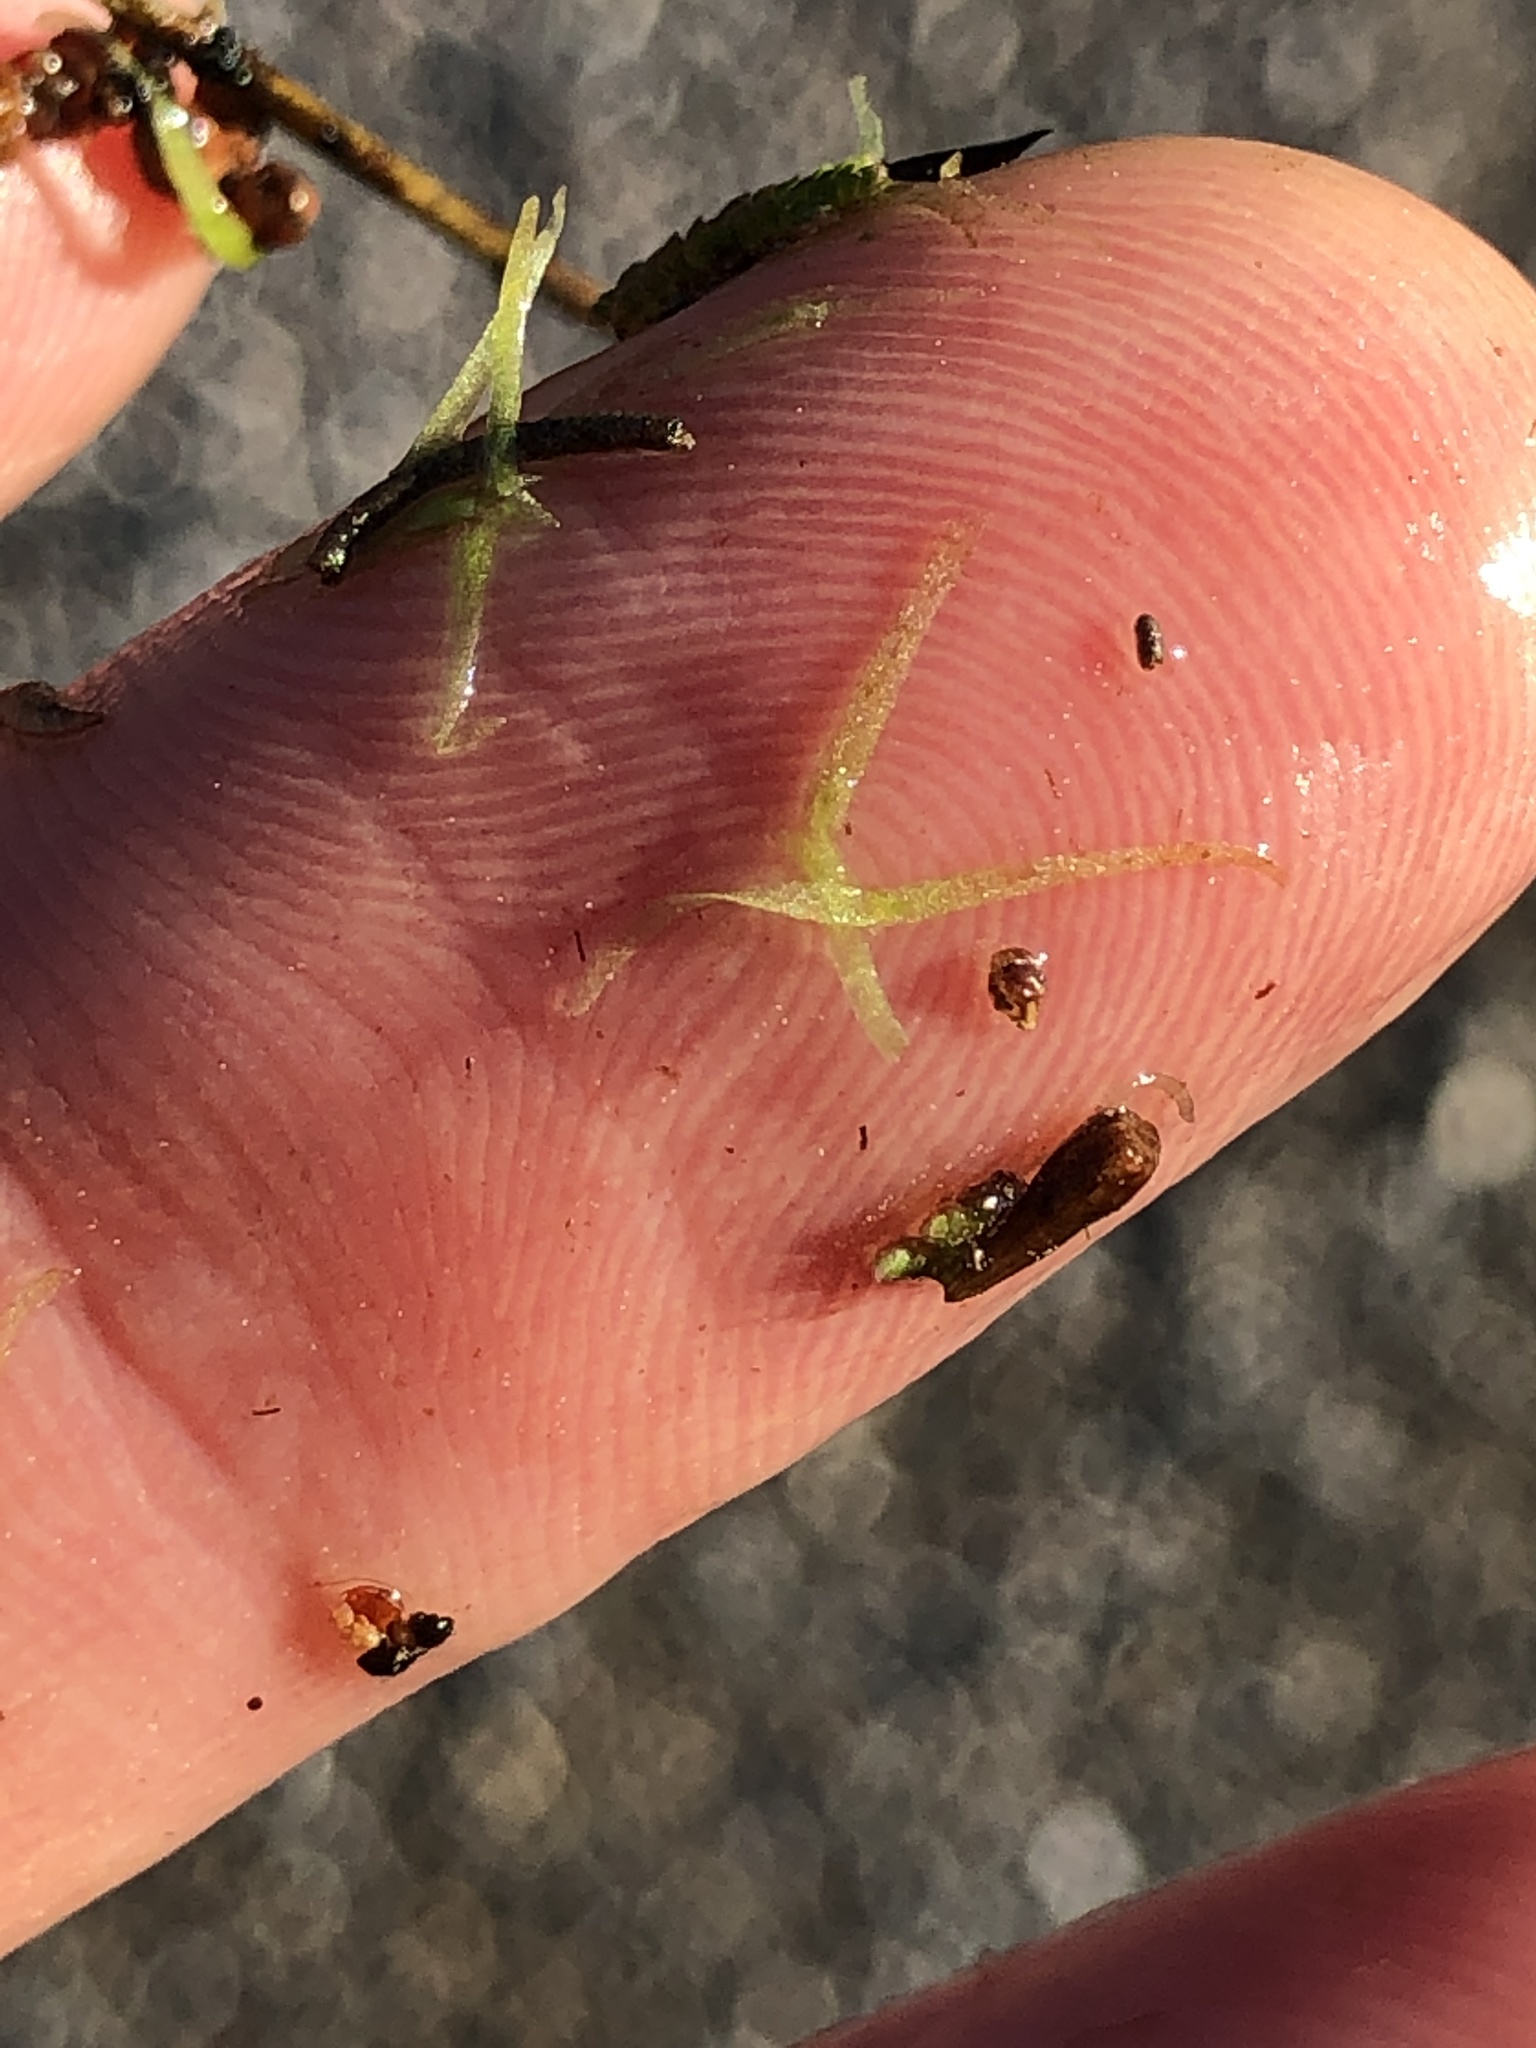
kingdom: Plantae
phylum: Tracheophyta
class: Liliopsida
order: Alismatales
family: Araceae
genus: Wolffiella
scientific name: Wolffiella gladiata
